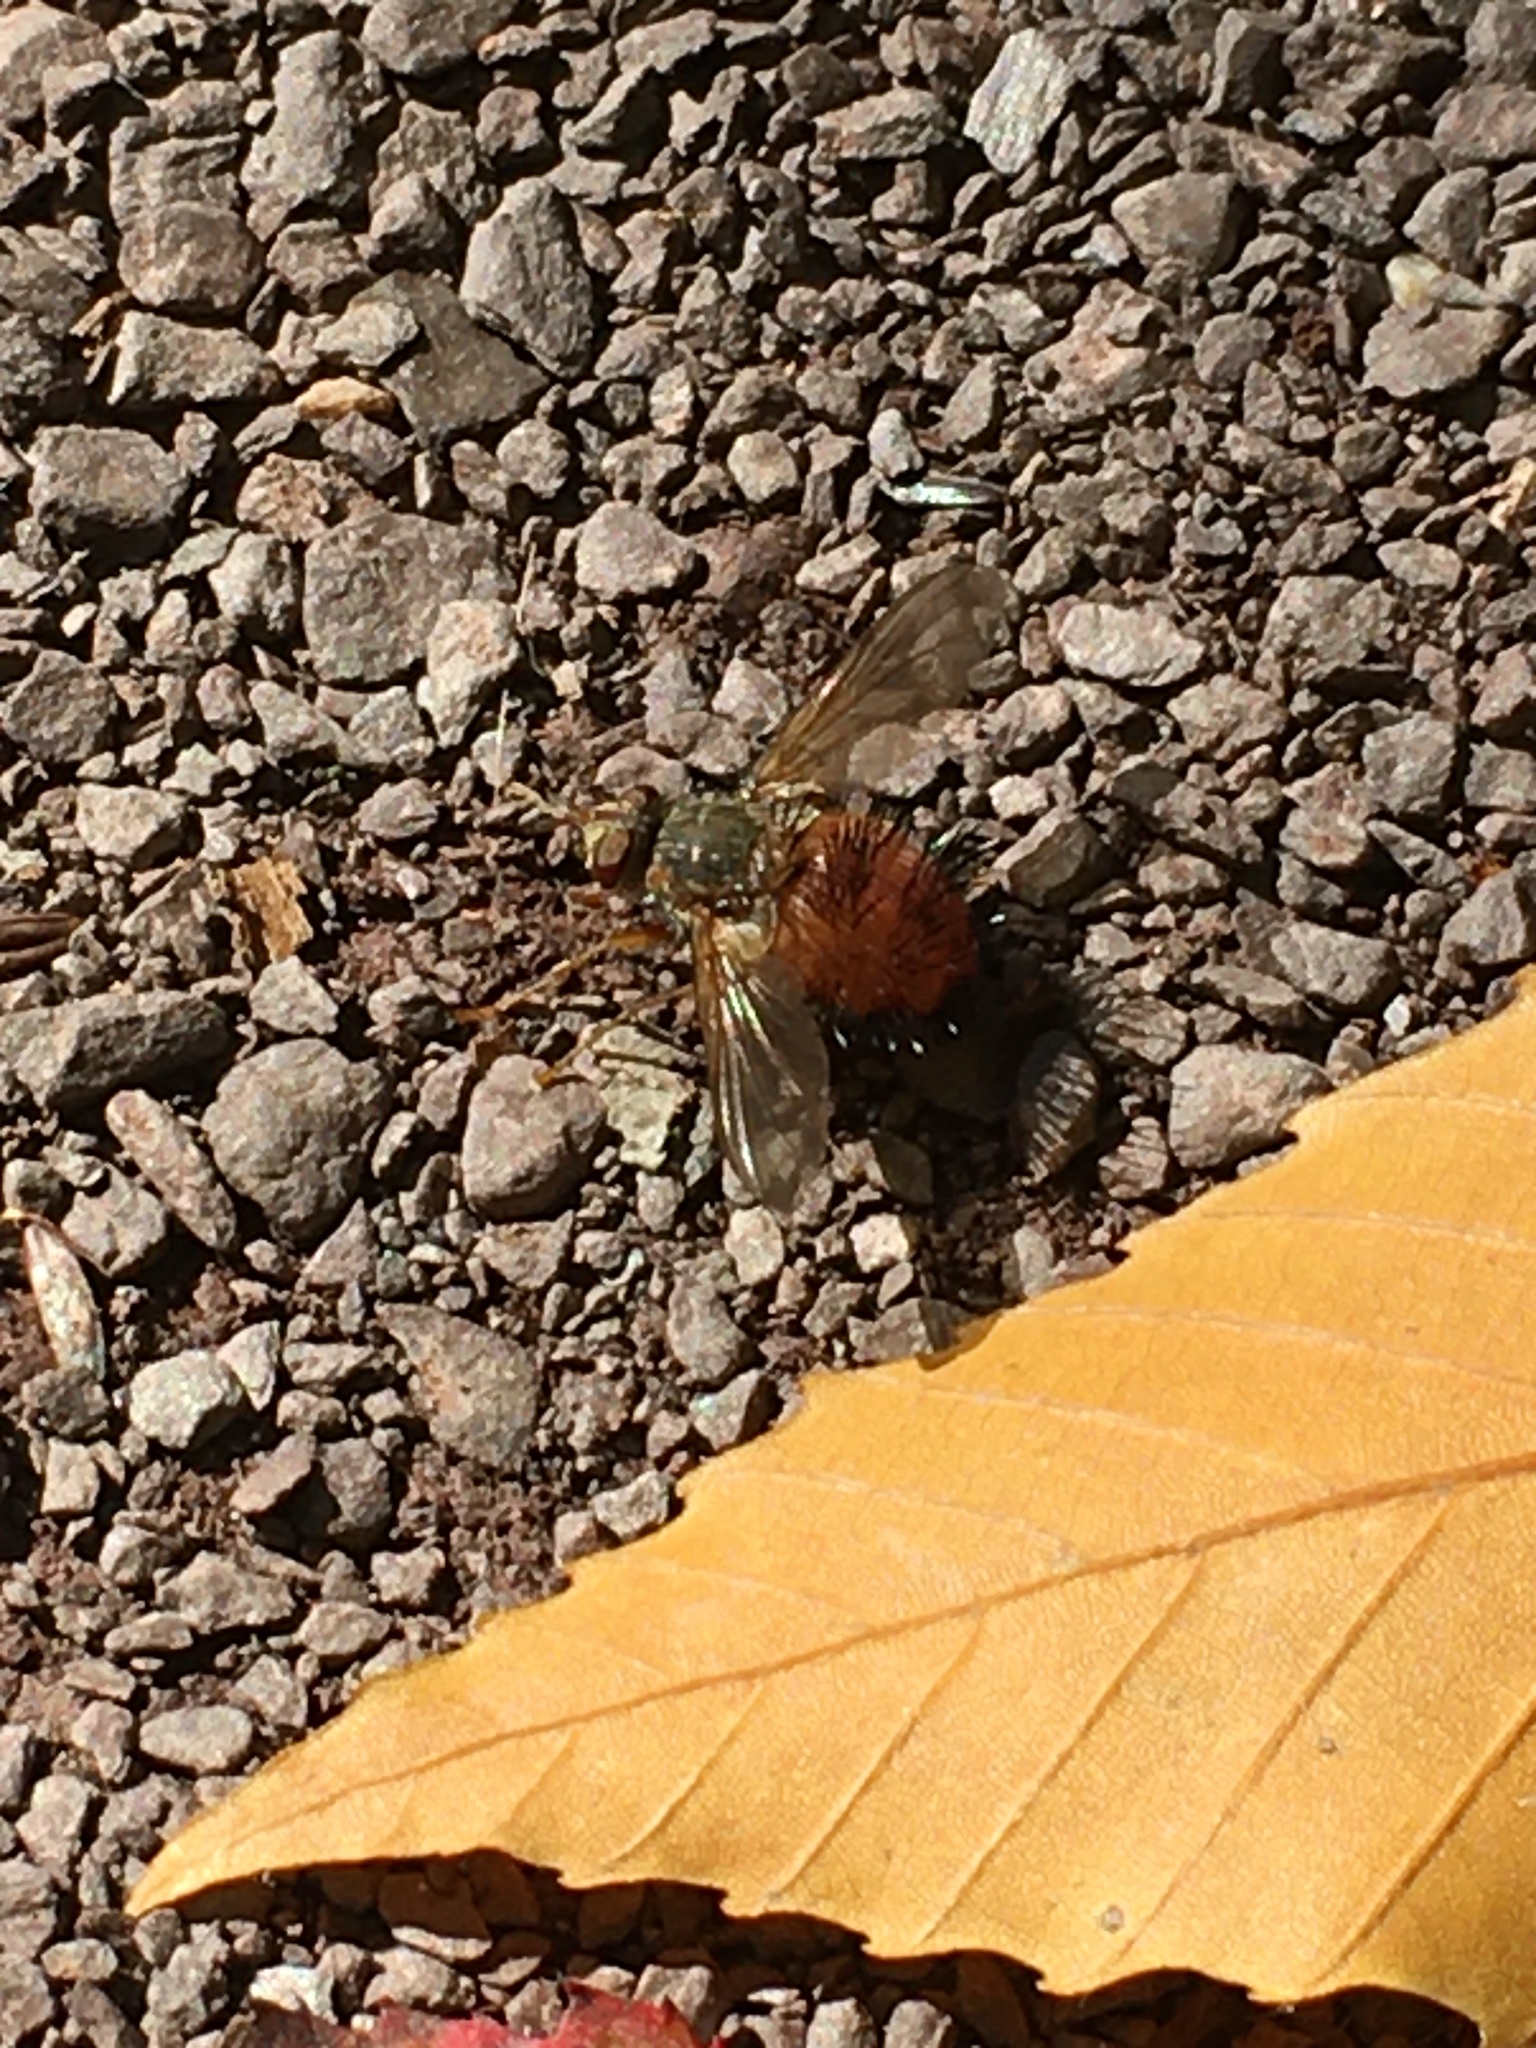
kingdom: Animalia
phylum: Arthropoda
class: Insecta
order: Diptera
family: Tachinidae
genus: Hystricia
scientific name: Hystricia abrupta
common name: Tomato bristle fly
